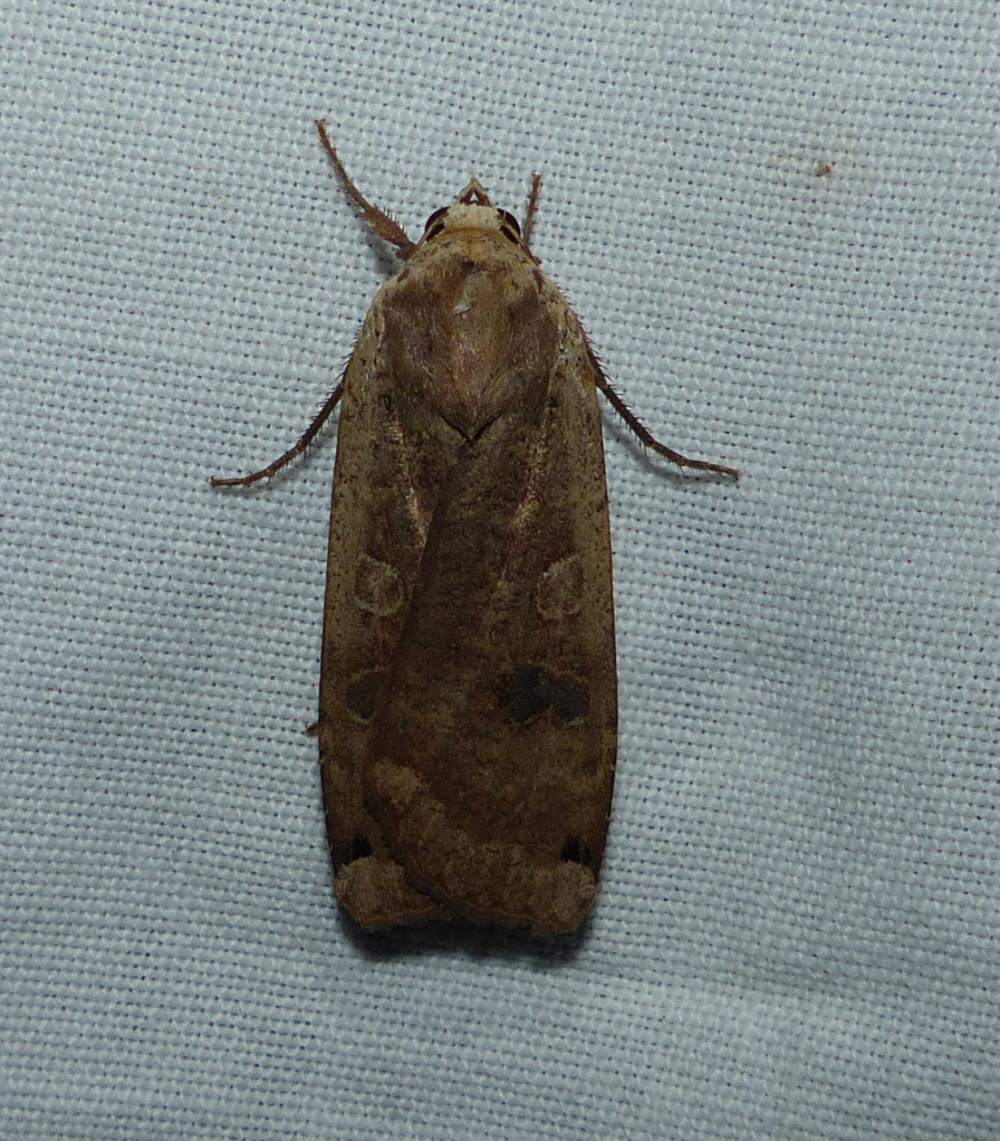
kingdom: Animalia
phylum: Arthropoda
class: Insecta
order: Lepidoptera
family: Noctuidae
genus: Noctua
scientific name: Noctua pronuba
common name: Large yellow underwing
